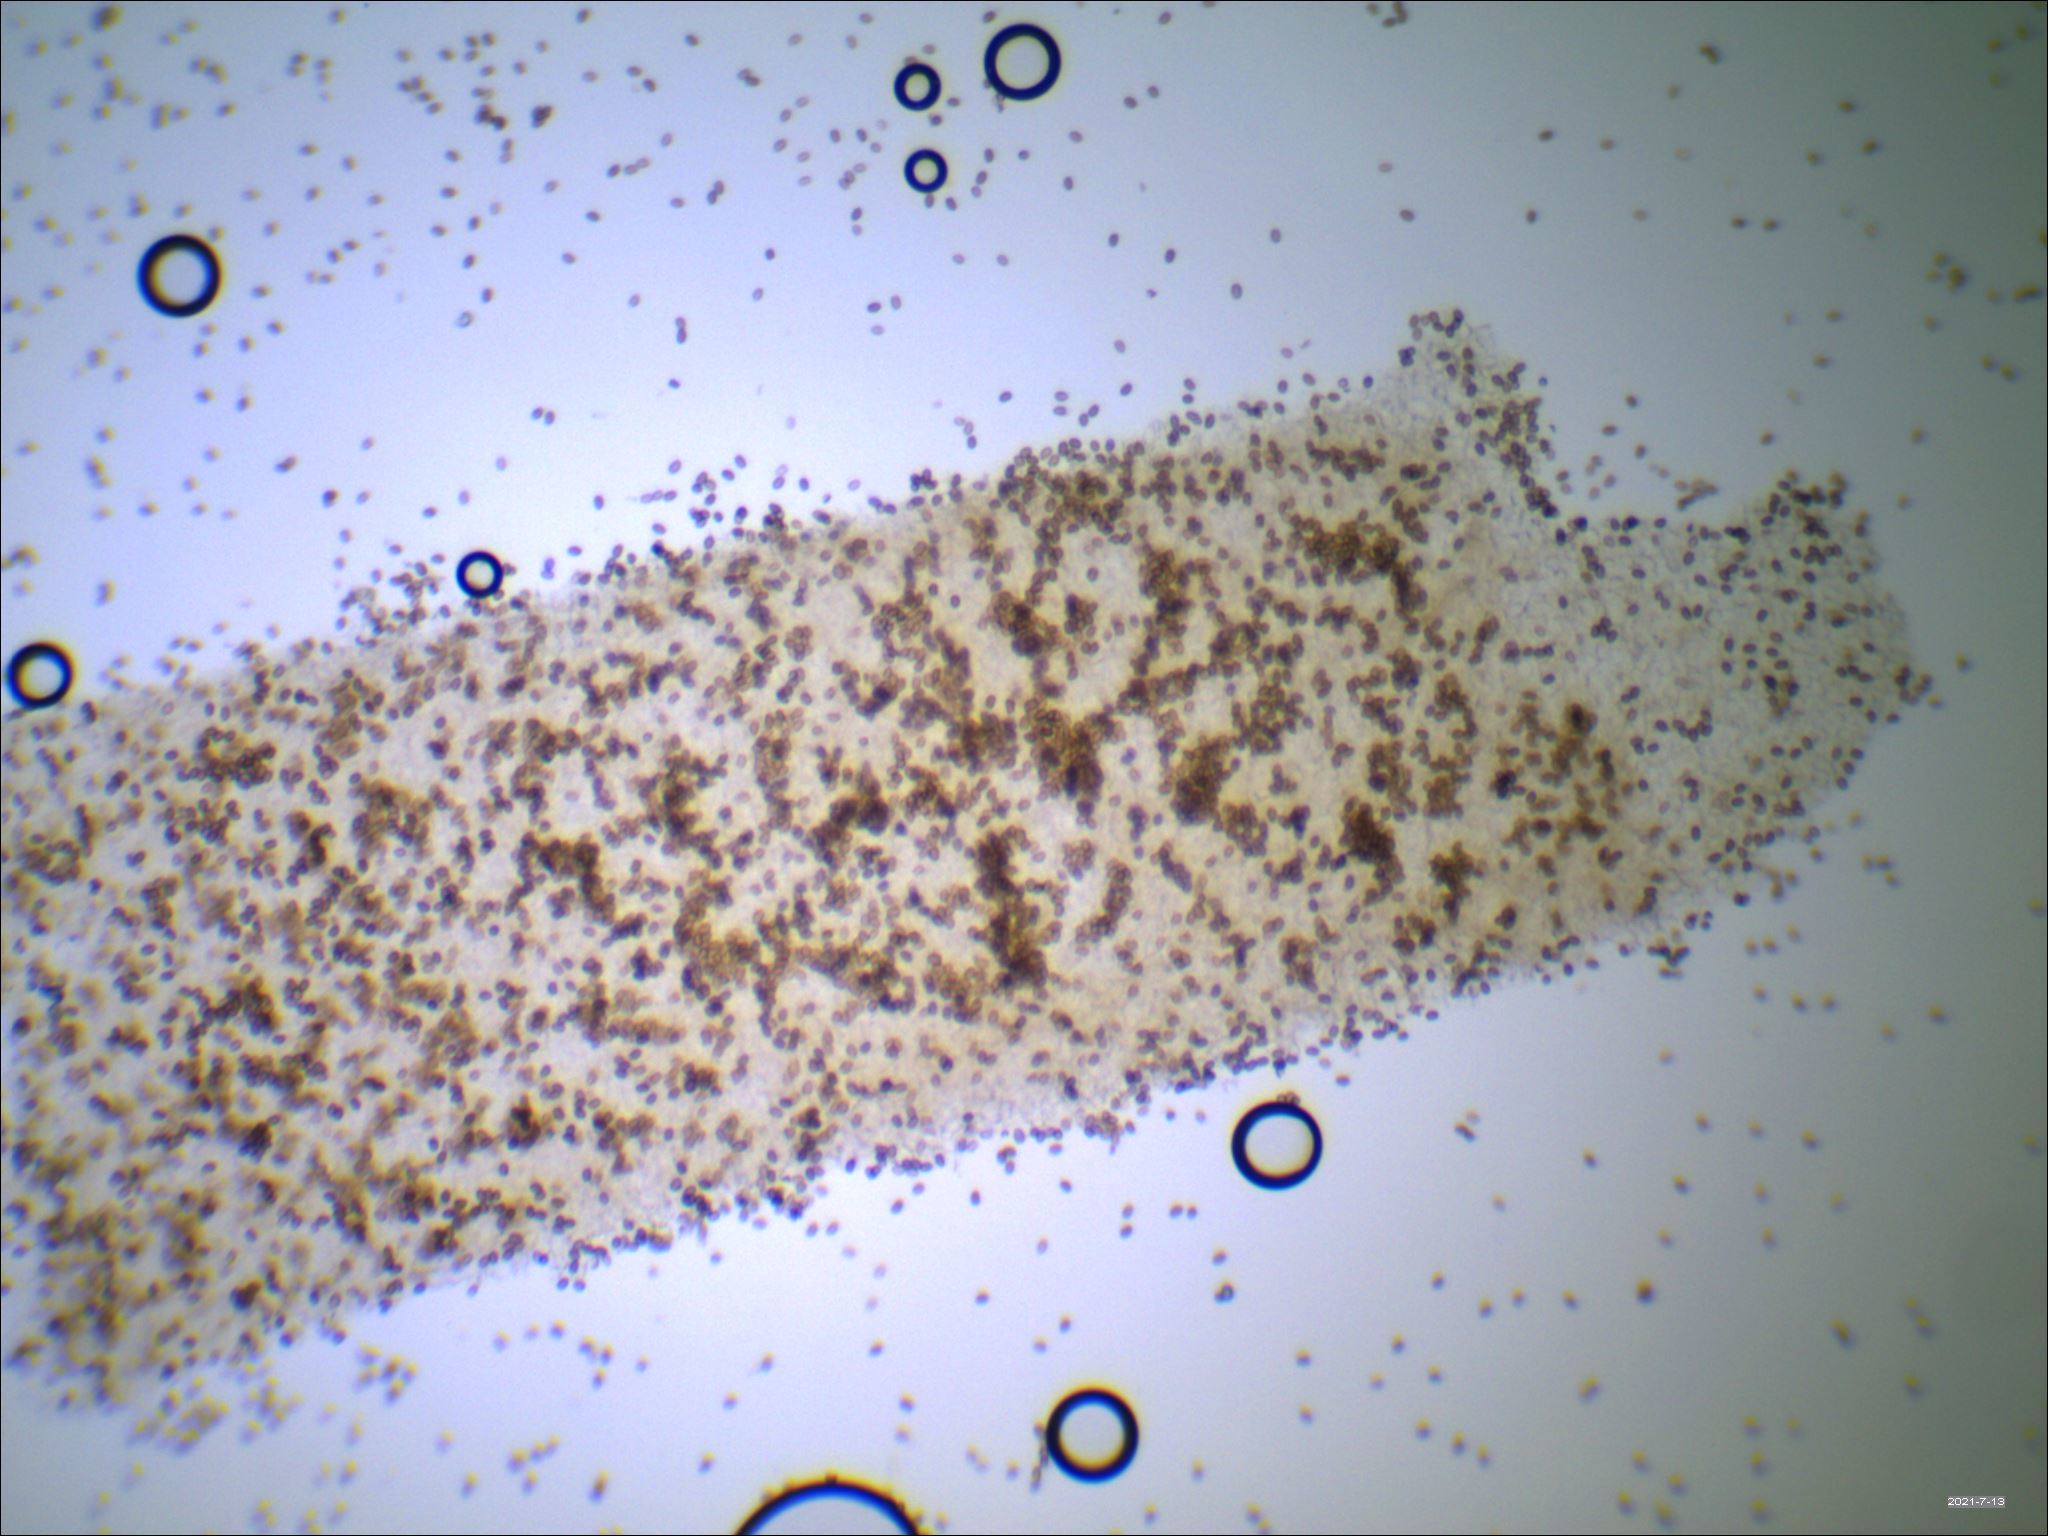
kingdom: Fungi
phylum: Basidiomycota
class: Agaricomycetes
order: Agaricales
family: Psathyrellaceae
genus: Candolleomyces
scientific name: Candolleomyces candolleanus
